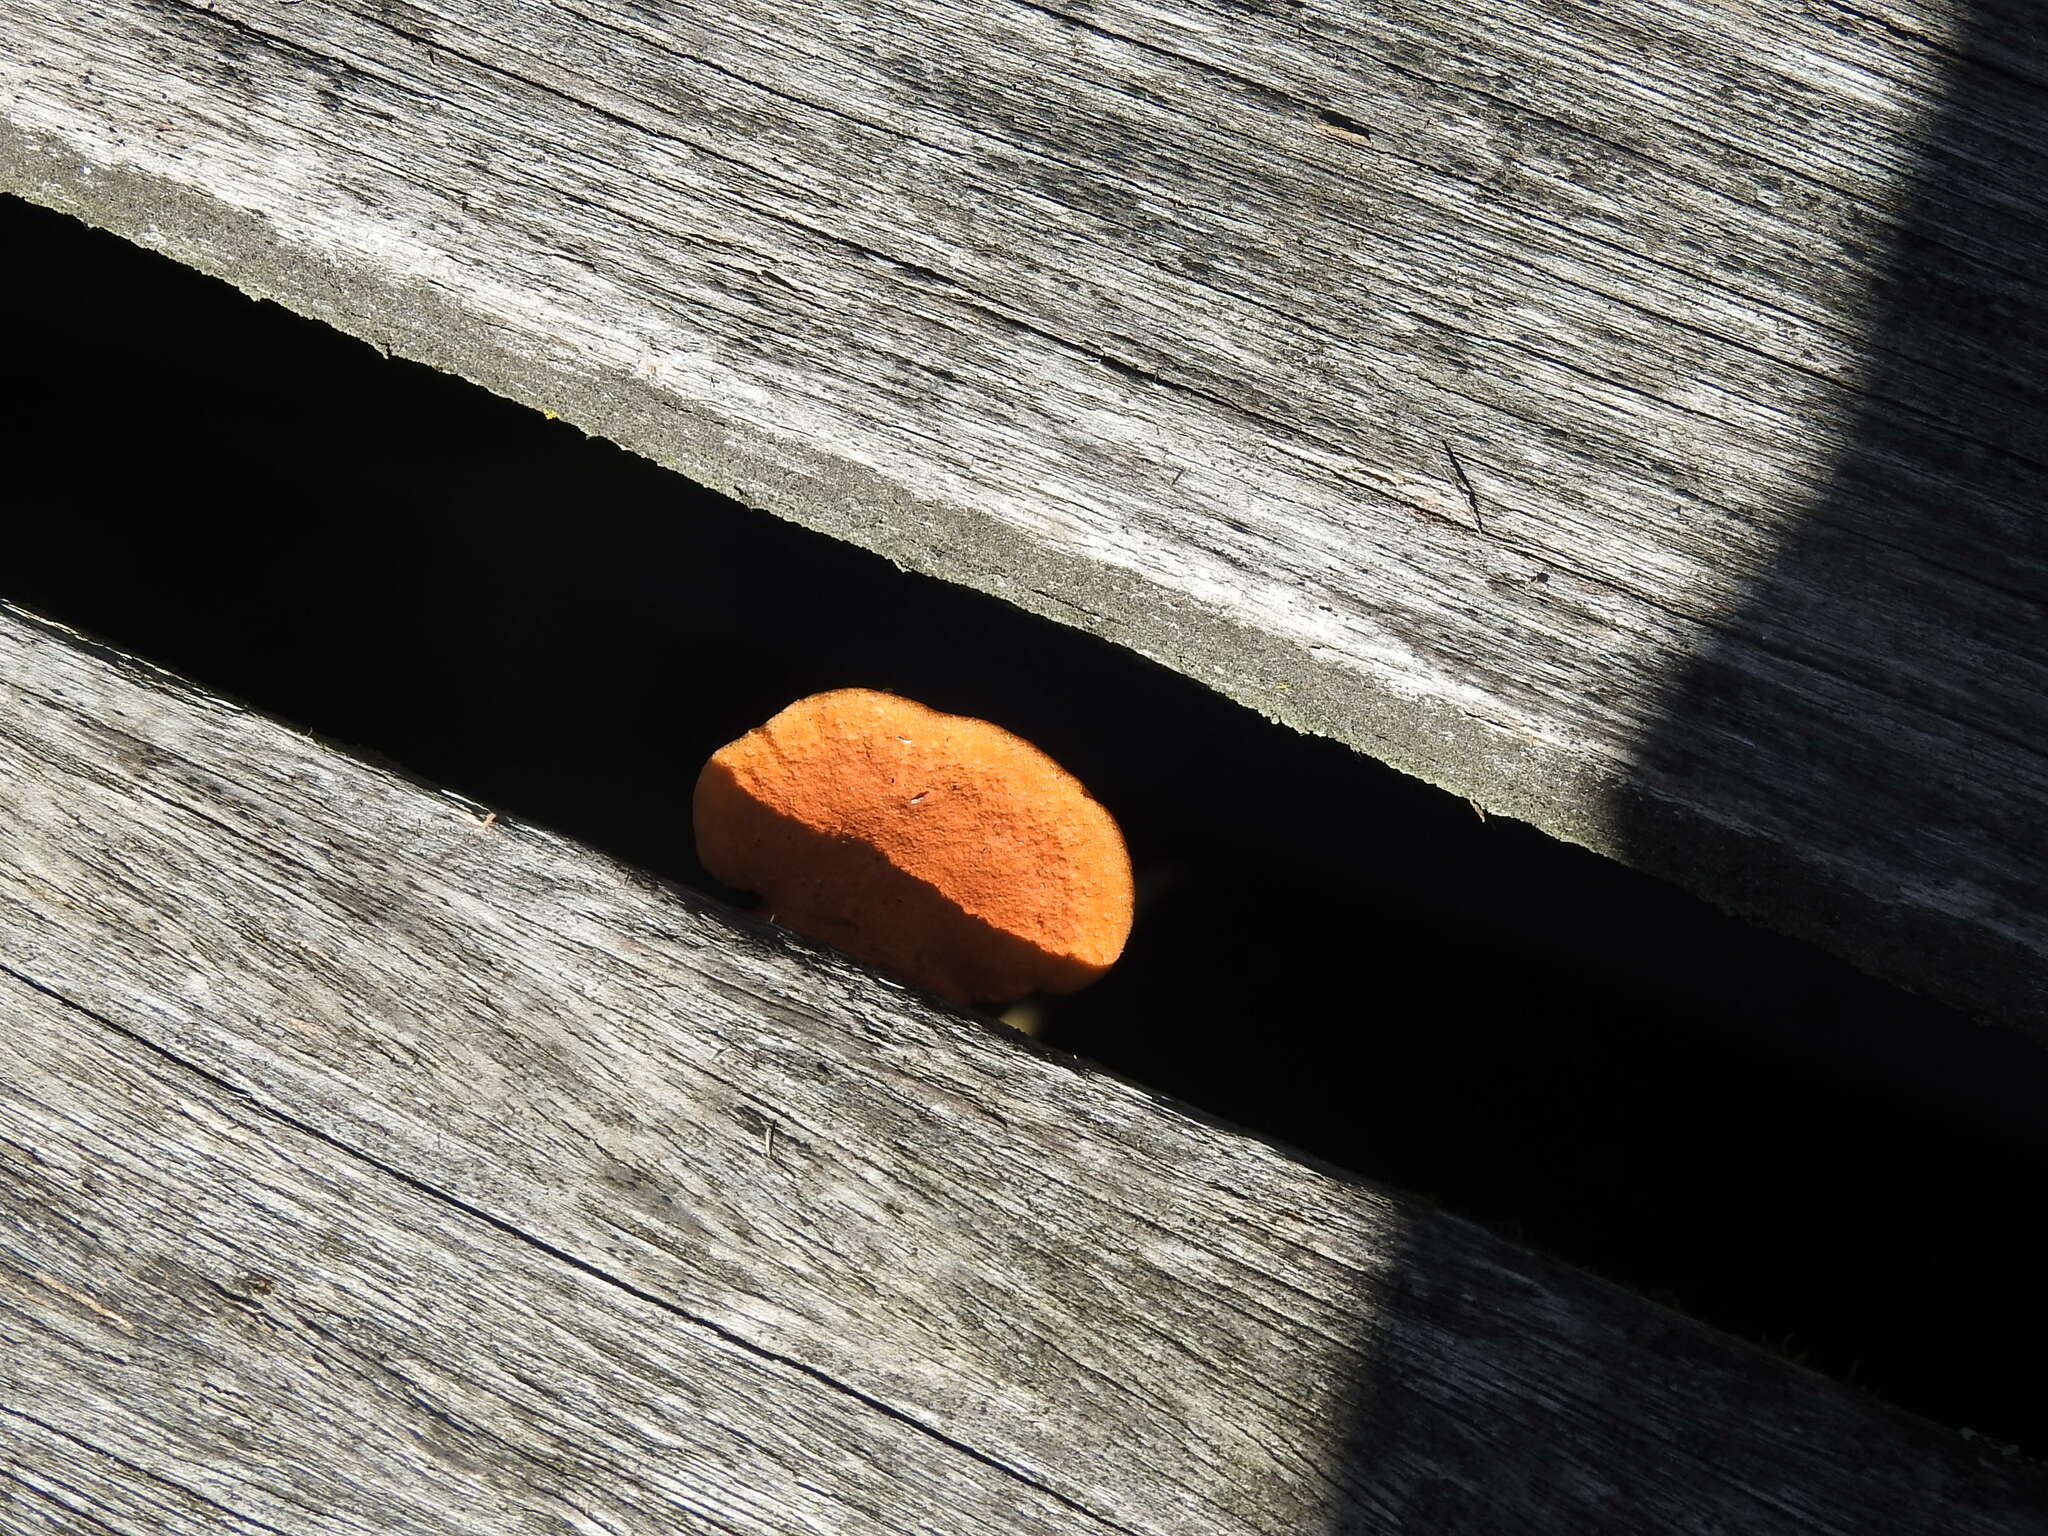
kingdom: Fungi
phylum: Basidiomycota
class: Agaricomycetes
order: Polyporales
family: Polyporaceae
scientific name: Polyporaceae
